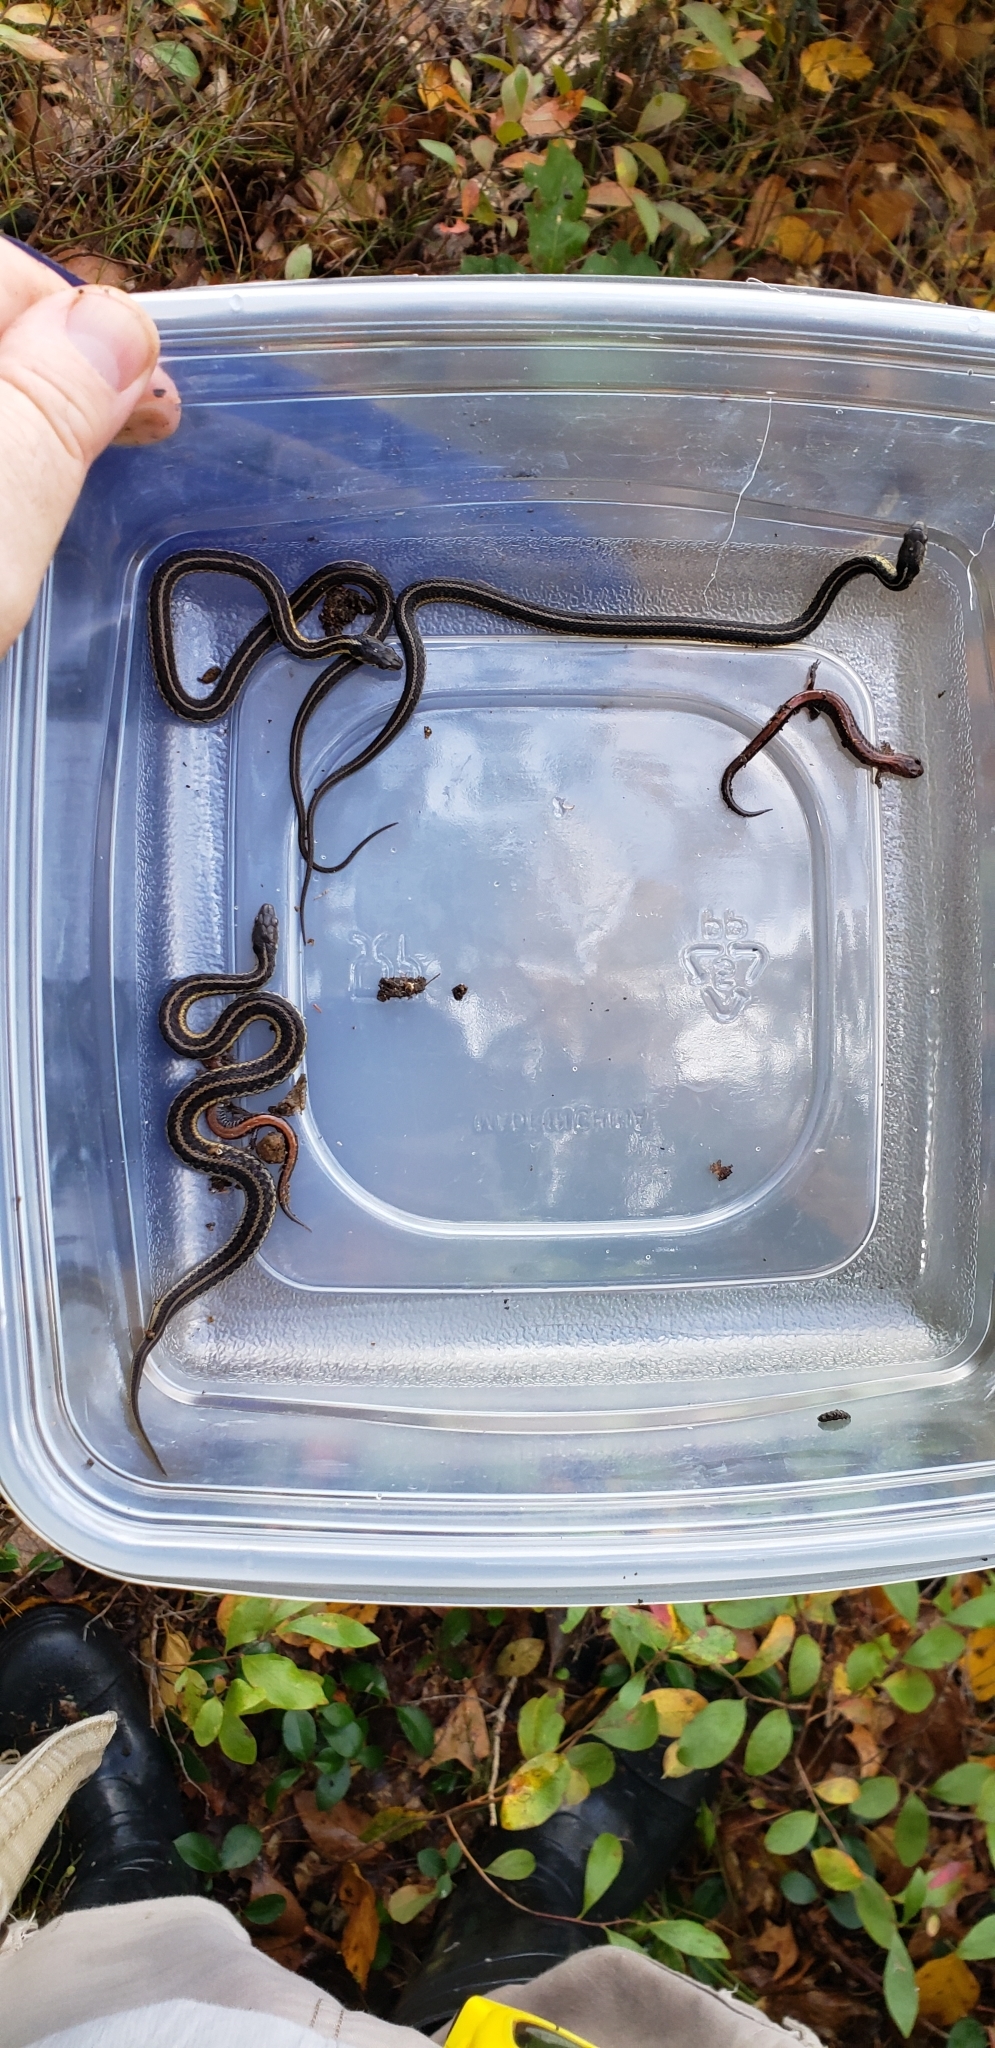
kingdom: Animalia
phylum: Chordata
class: Squamata
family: Colubridae
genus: Thamnophis
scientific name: Thamnophis sirtalis
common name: Common garter snake
